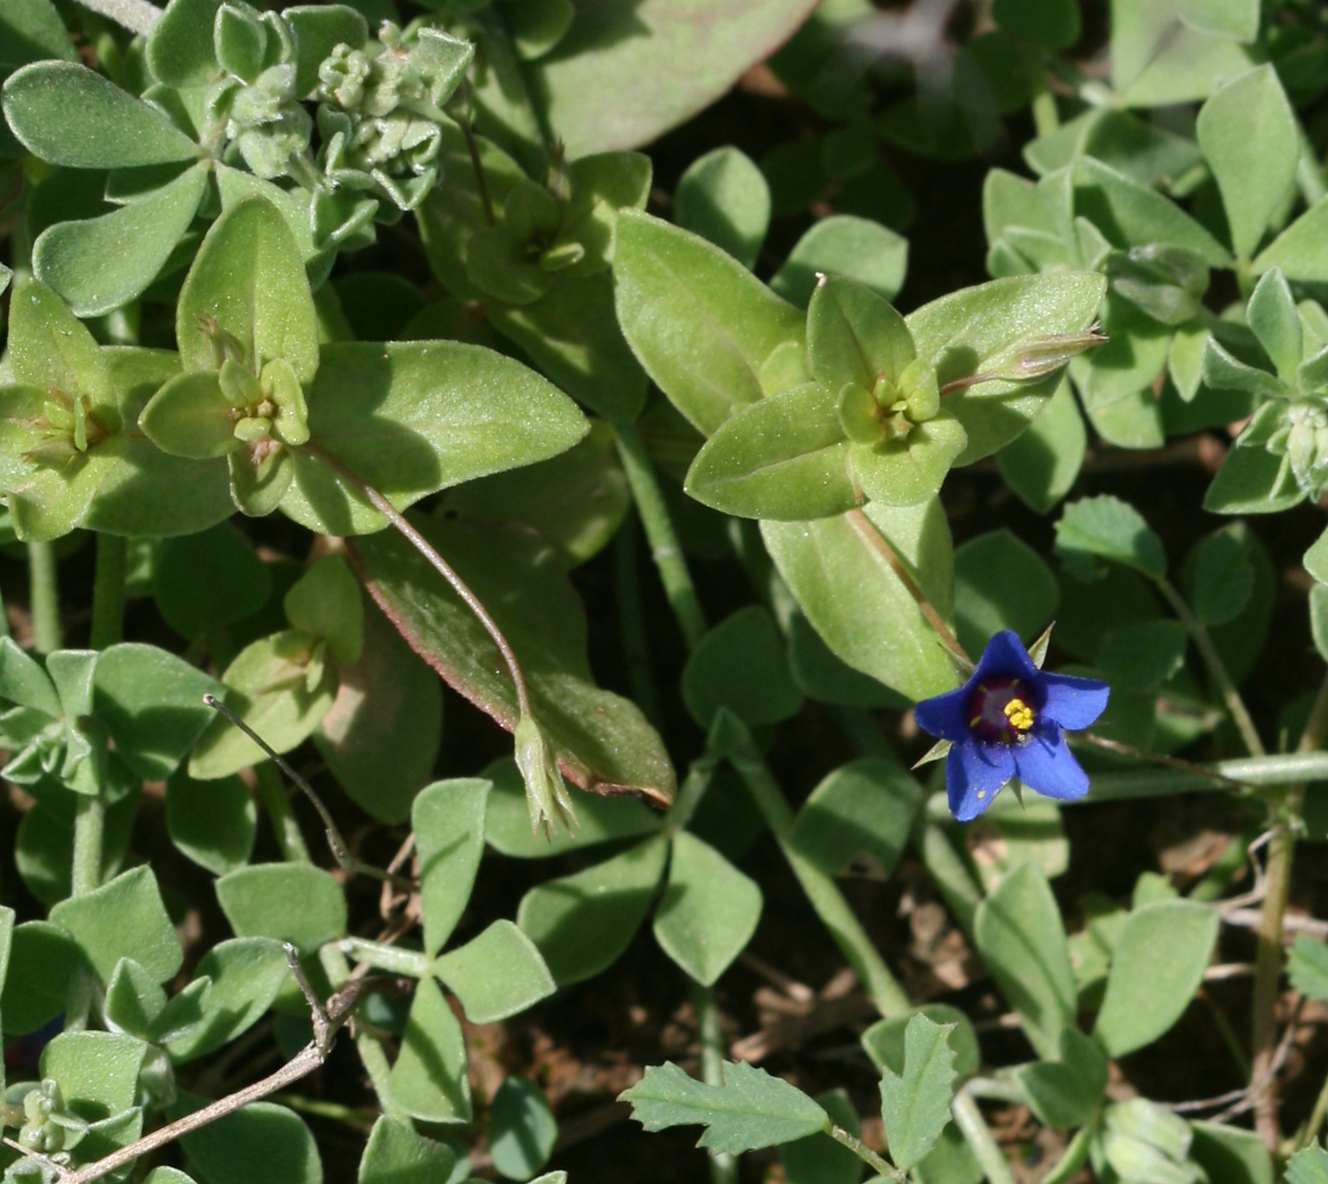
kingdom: Plantae
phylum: Tracheophyta
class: Magnoliopsida
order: Ericales
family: Primulaceae
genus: Lysimachia
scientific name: Lysimachia loeflingii
